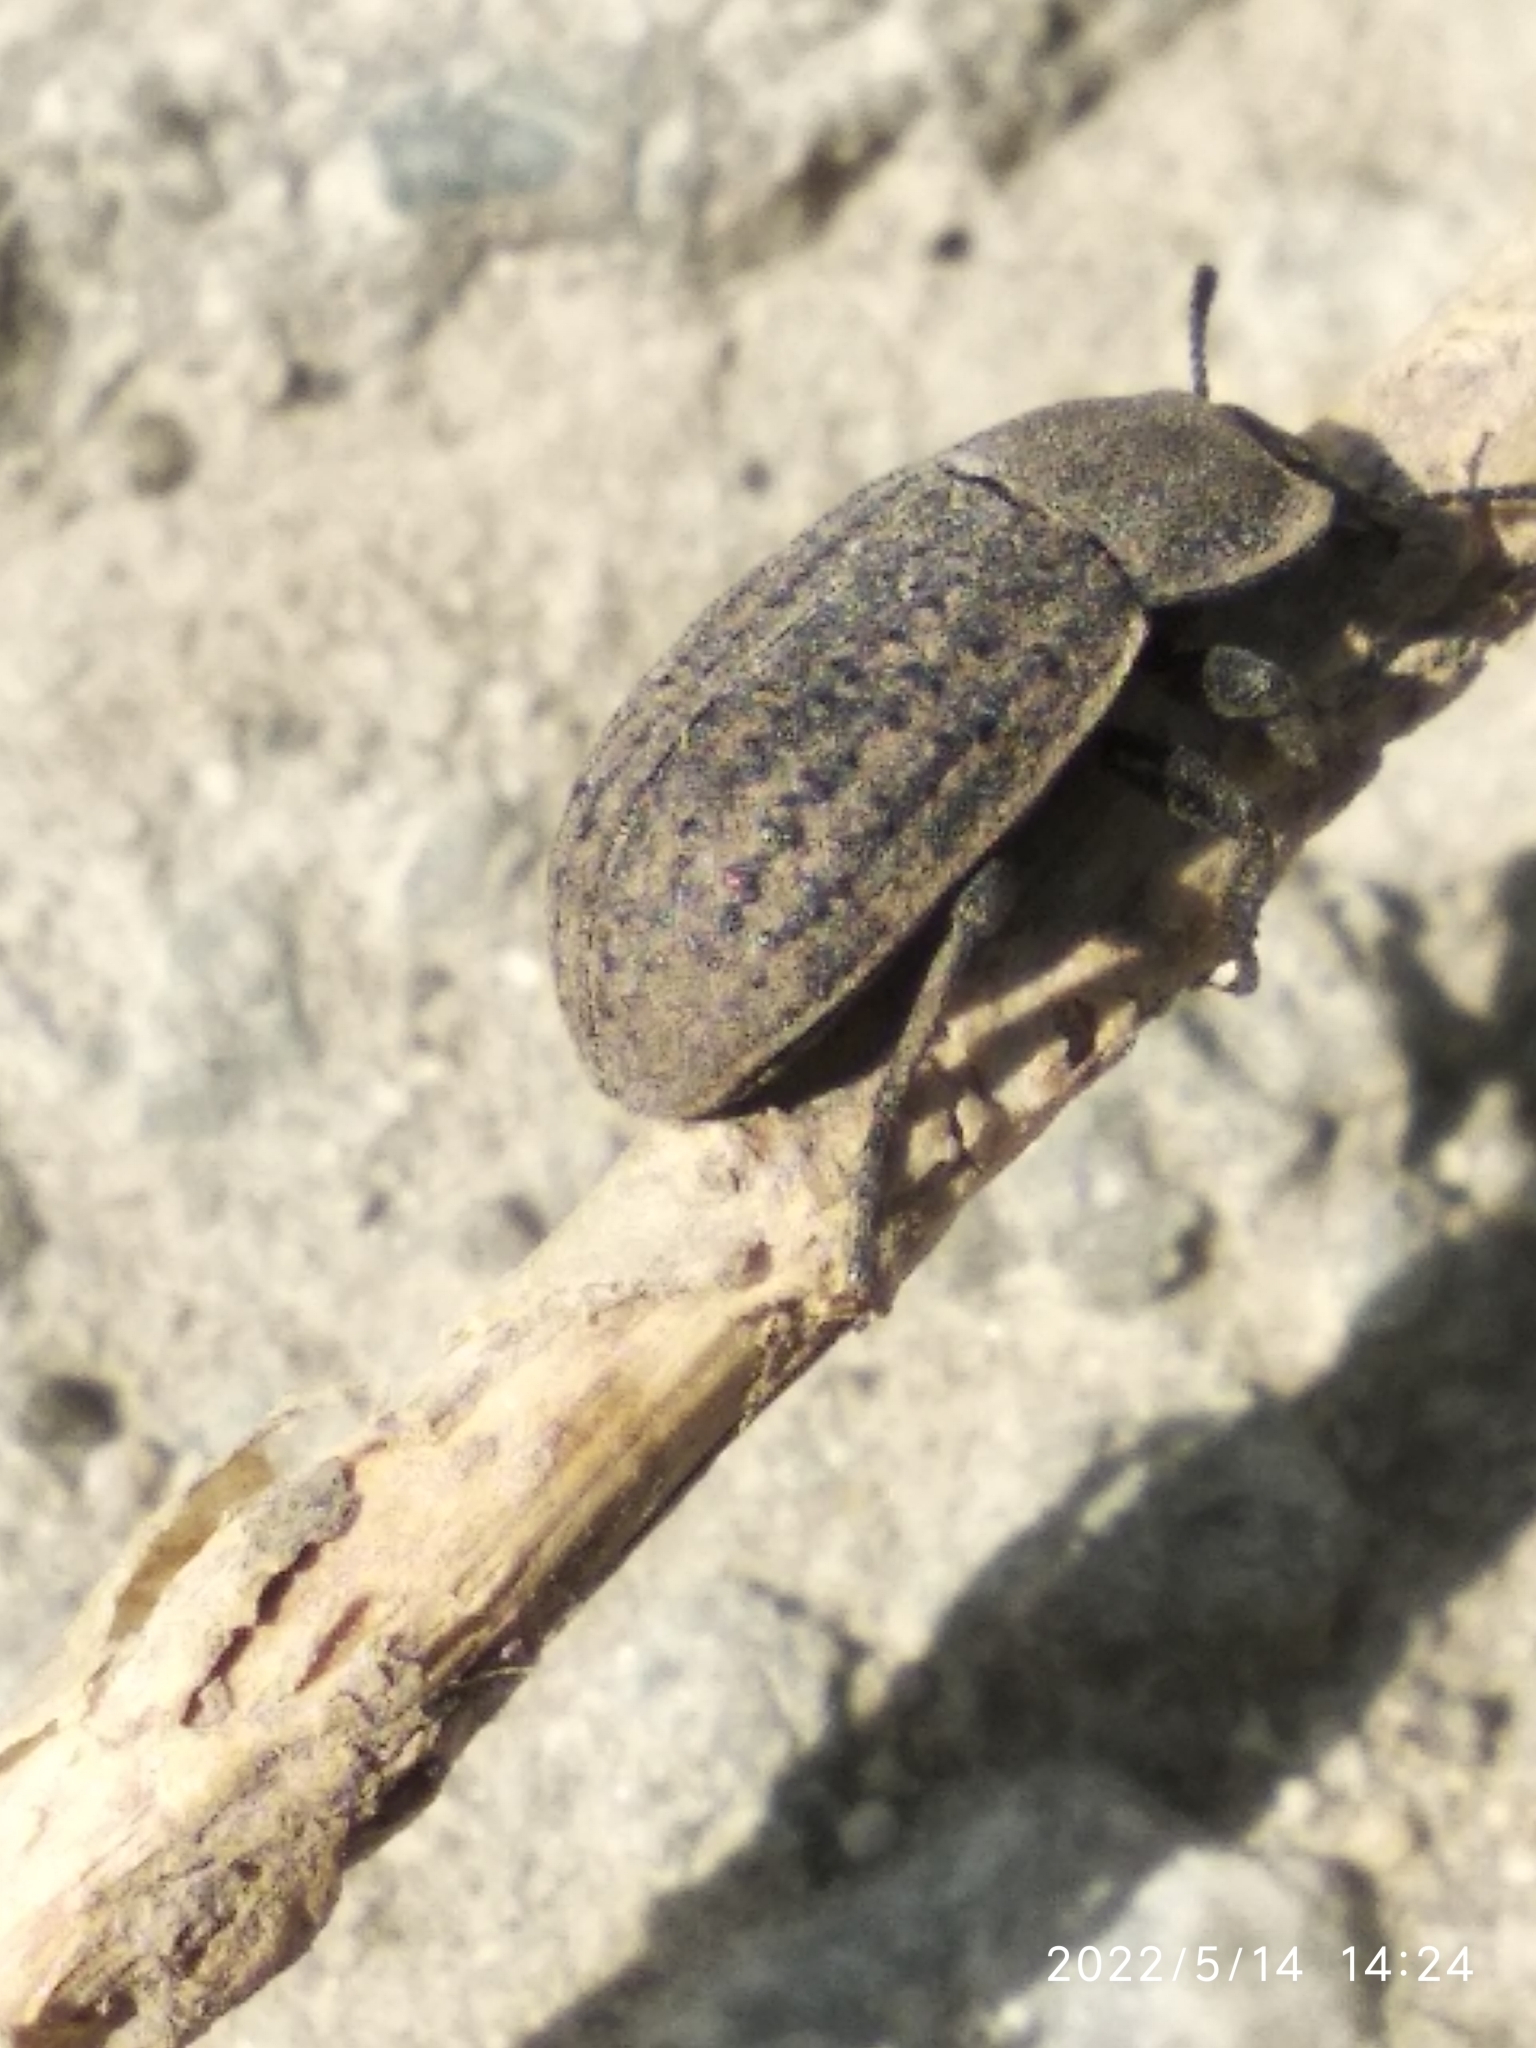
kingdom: Animalia
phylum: Arthropoda
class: Insecta
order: Coleoptera
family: Tenebrionidae
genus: Opatrum
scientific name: Opatrum sabulosum
